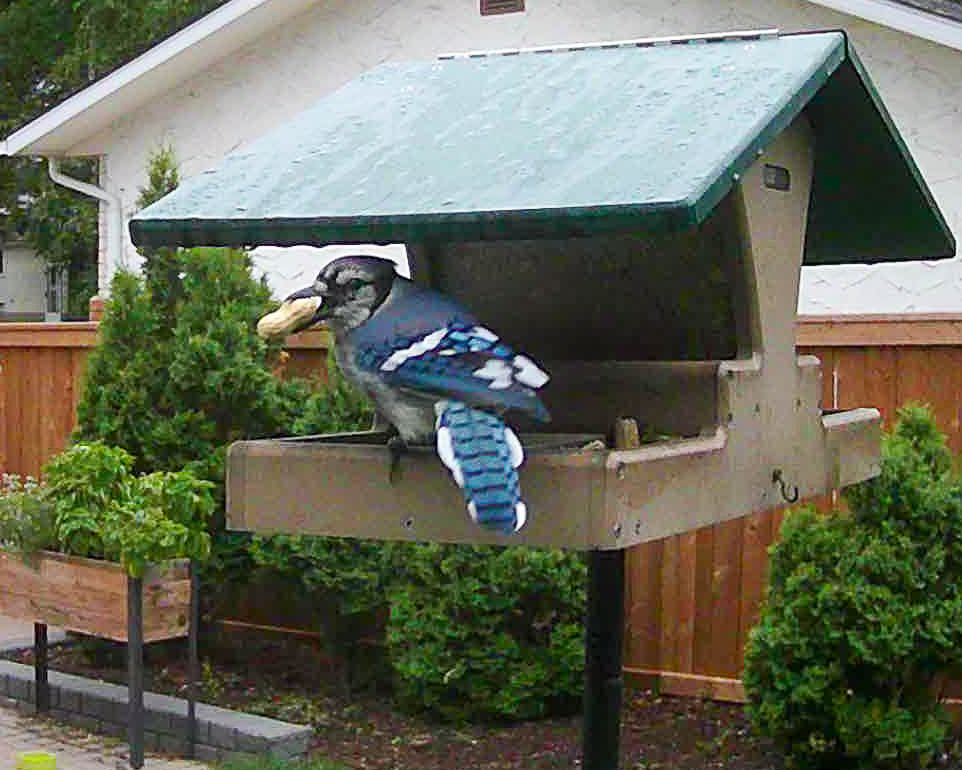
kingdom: Animalia
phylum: Chordata
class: Aves
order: Passeriformes
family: Corvidae
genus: Cyanocitta
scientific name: Cyanocitta cristata
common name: Blue jay
